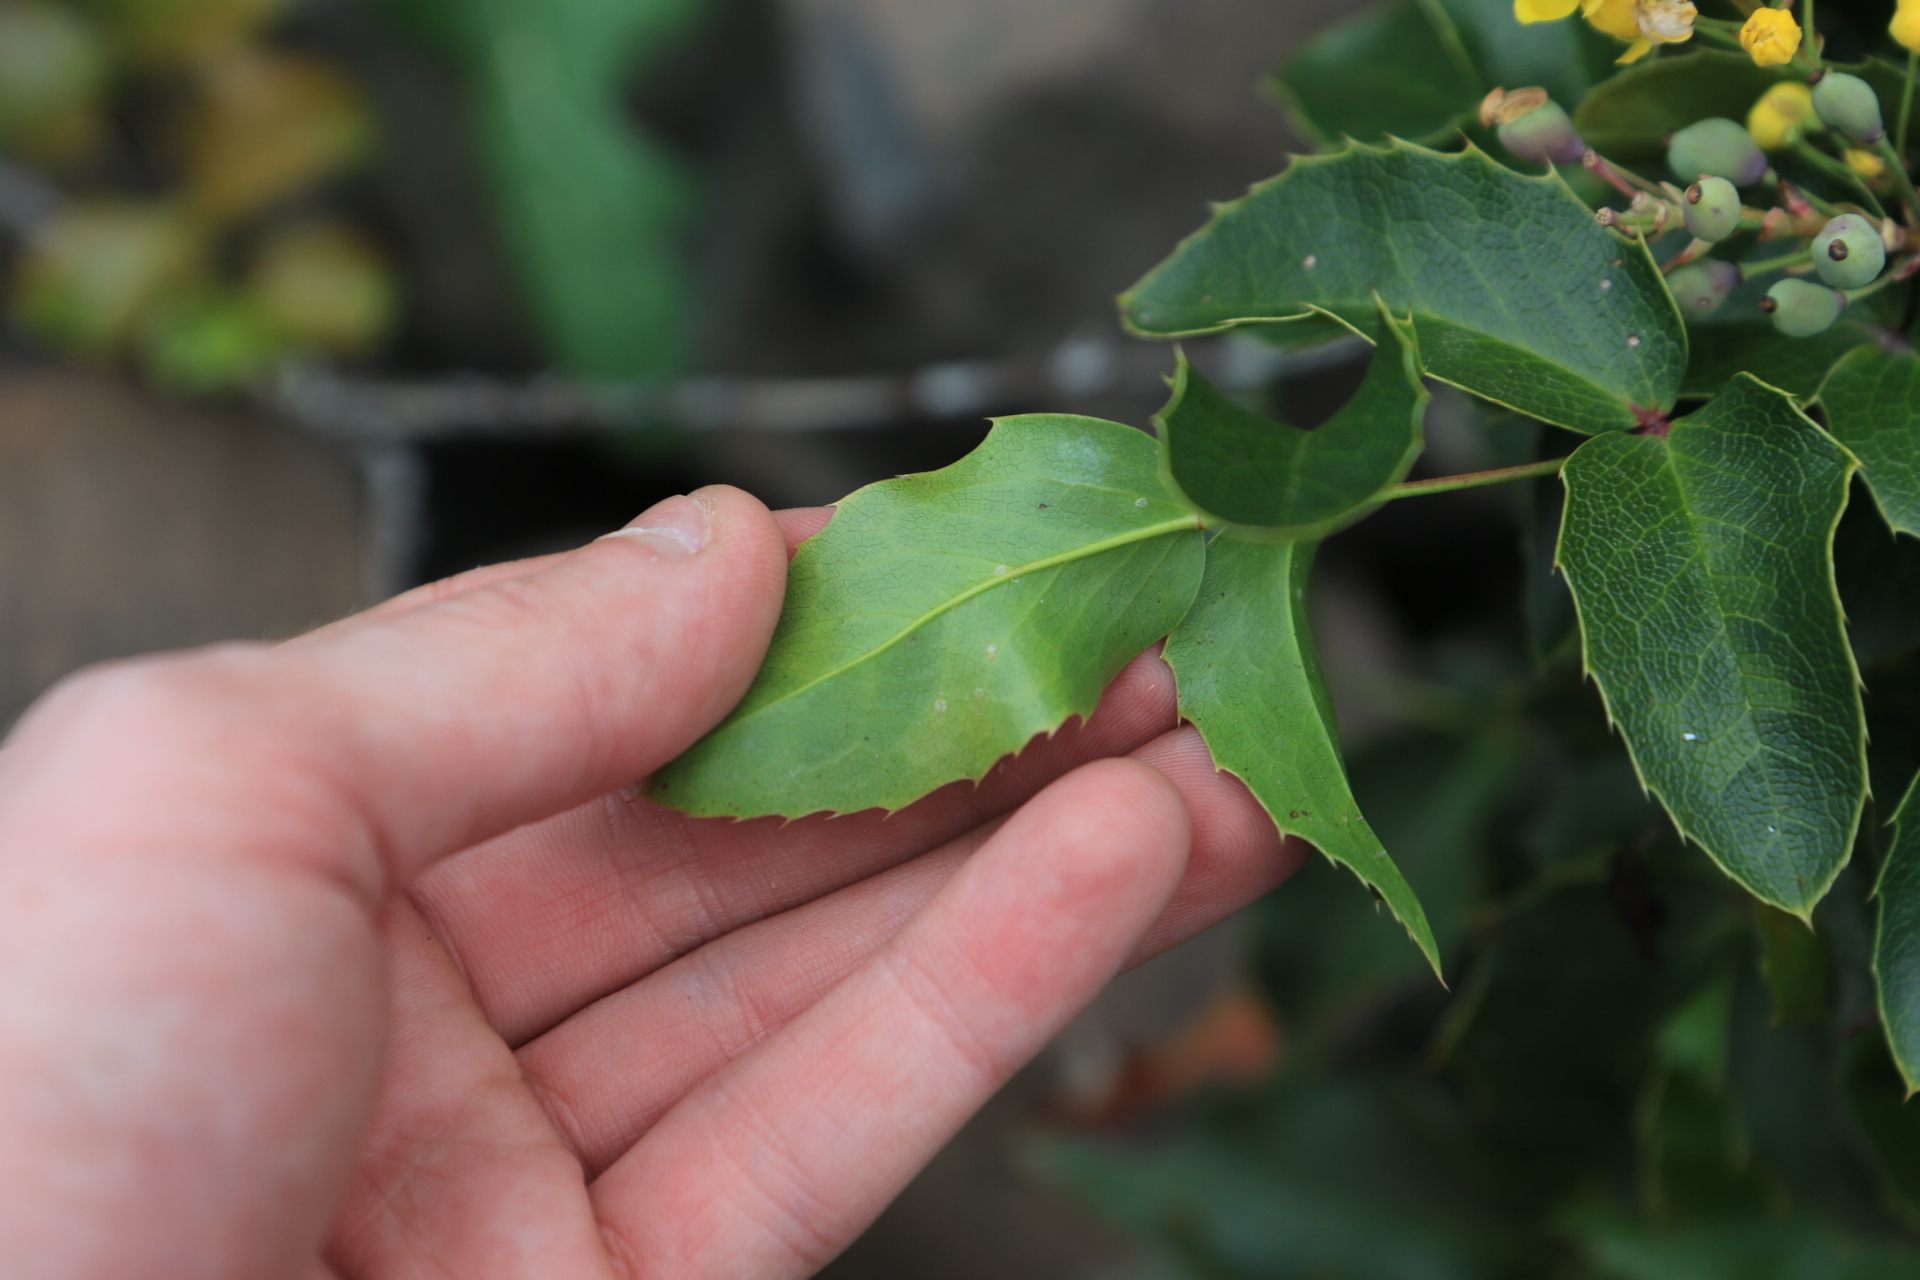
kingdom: Plantae
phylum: Tracheophyta
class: Magnoliopsida
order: Ranunculales
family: Berberidaceae
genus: Mahonia
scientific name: Mahonia aquifolium
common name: Oregon-grape
